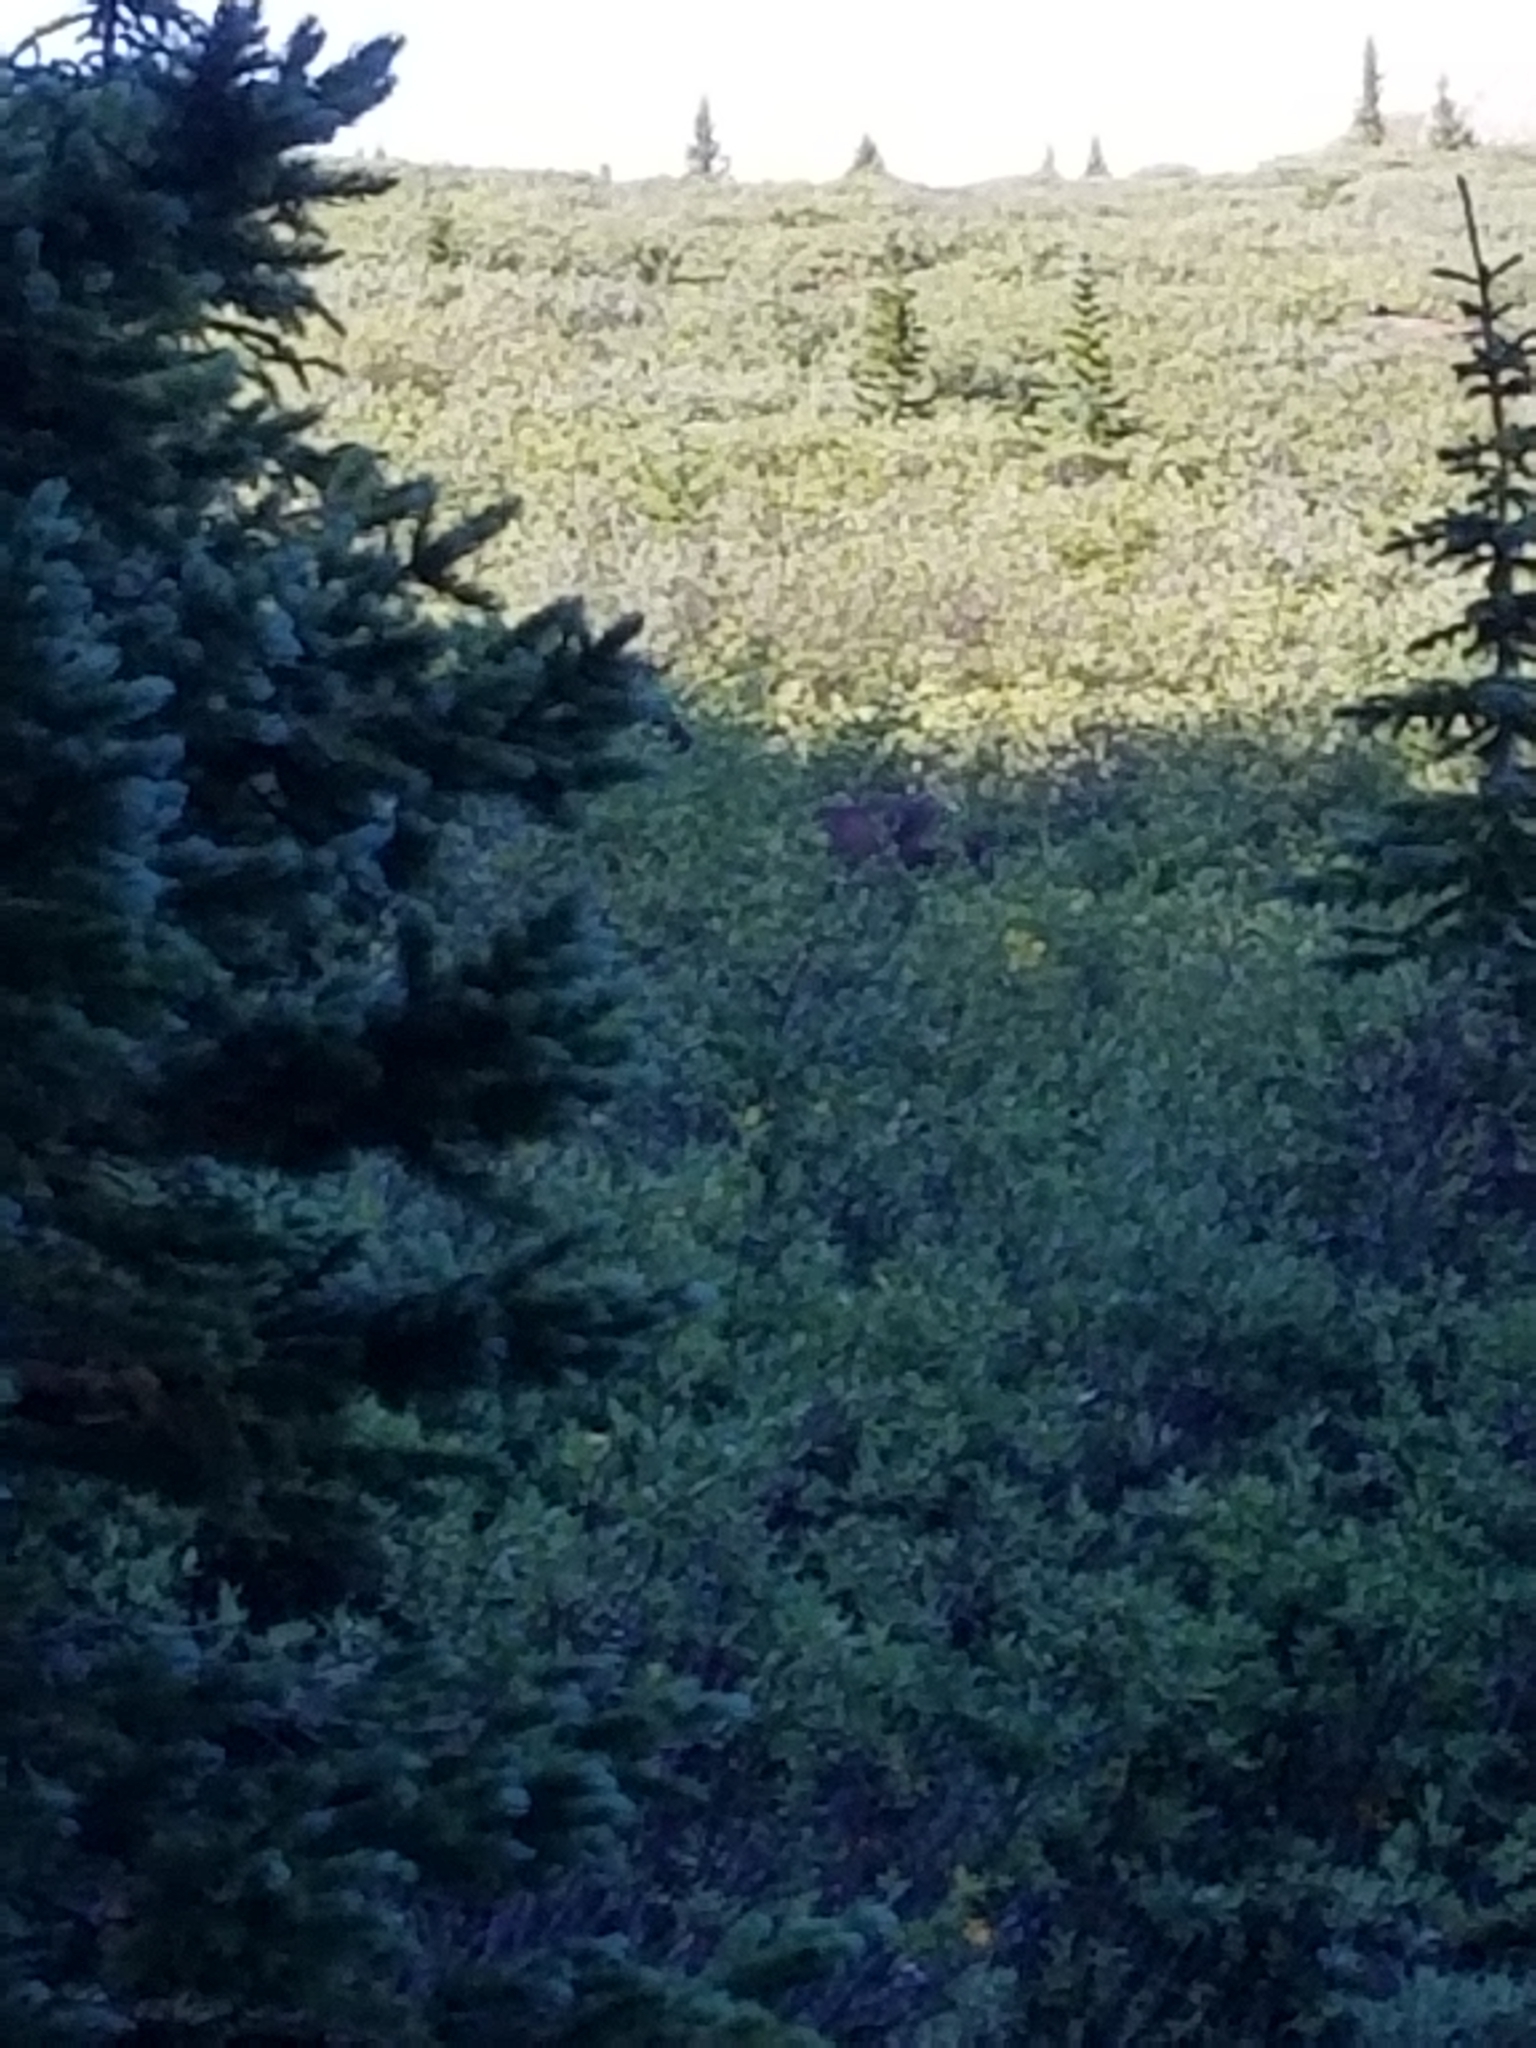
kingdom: Animalia
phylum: Chordata
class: Mammalia
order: Artiodactyla
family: Cervidae
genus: Alces
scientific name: Alces alces
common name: Moose
